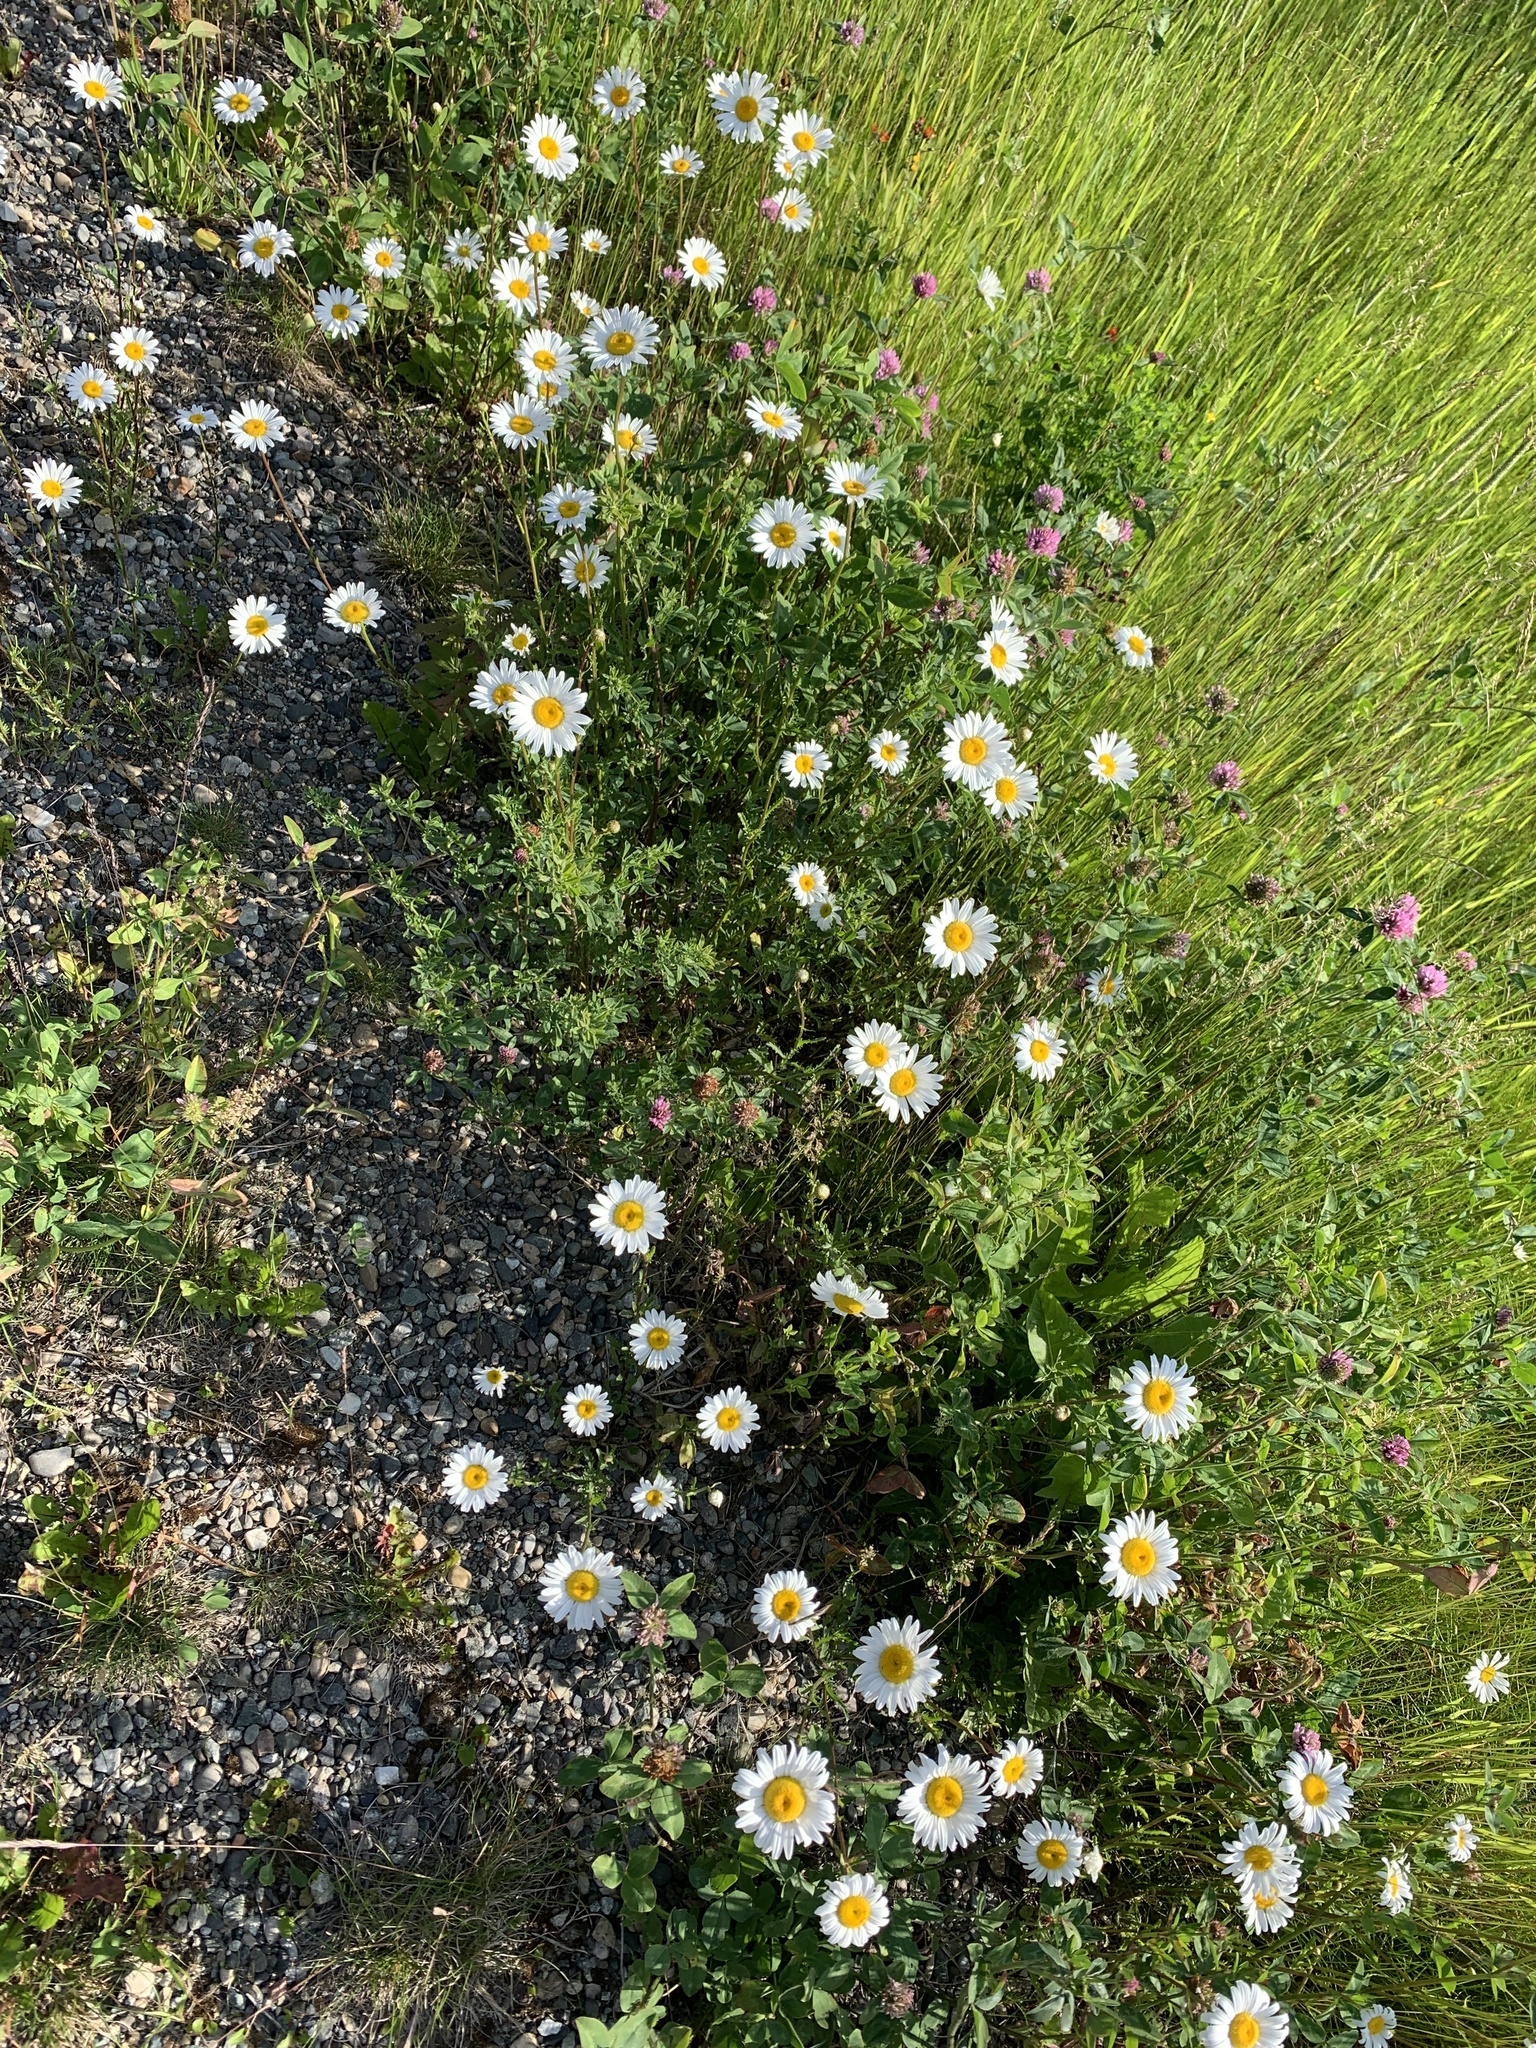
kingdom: Plantae
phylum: Tracheophyta
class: Magnoliopsida
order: Asterales
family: Asteraceae
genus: Leucanthemum
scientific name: Leucanthemum vulgare
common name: Oxeye daisy
